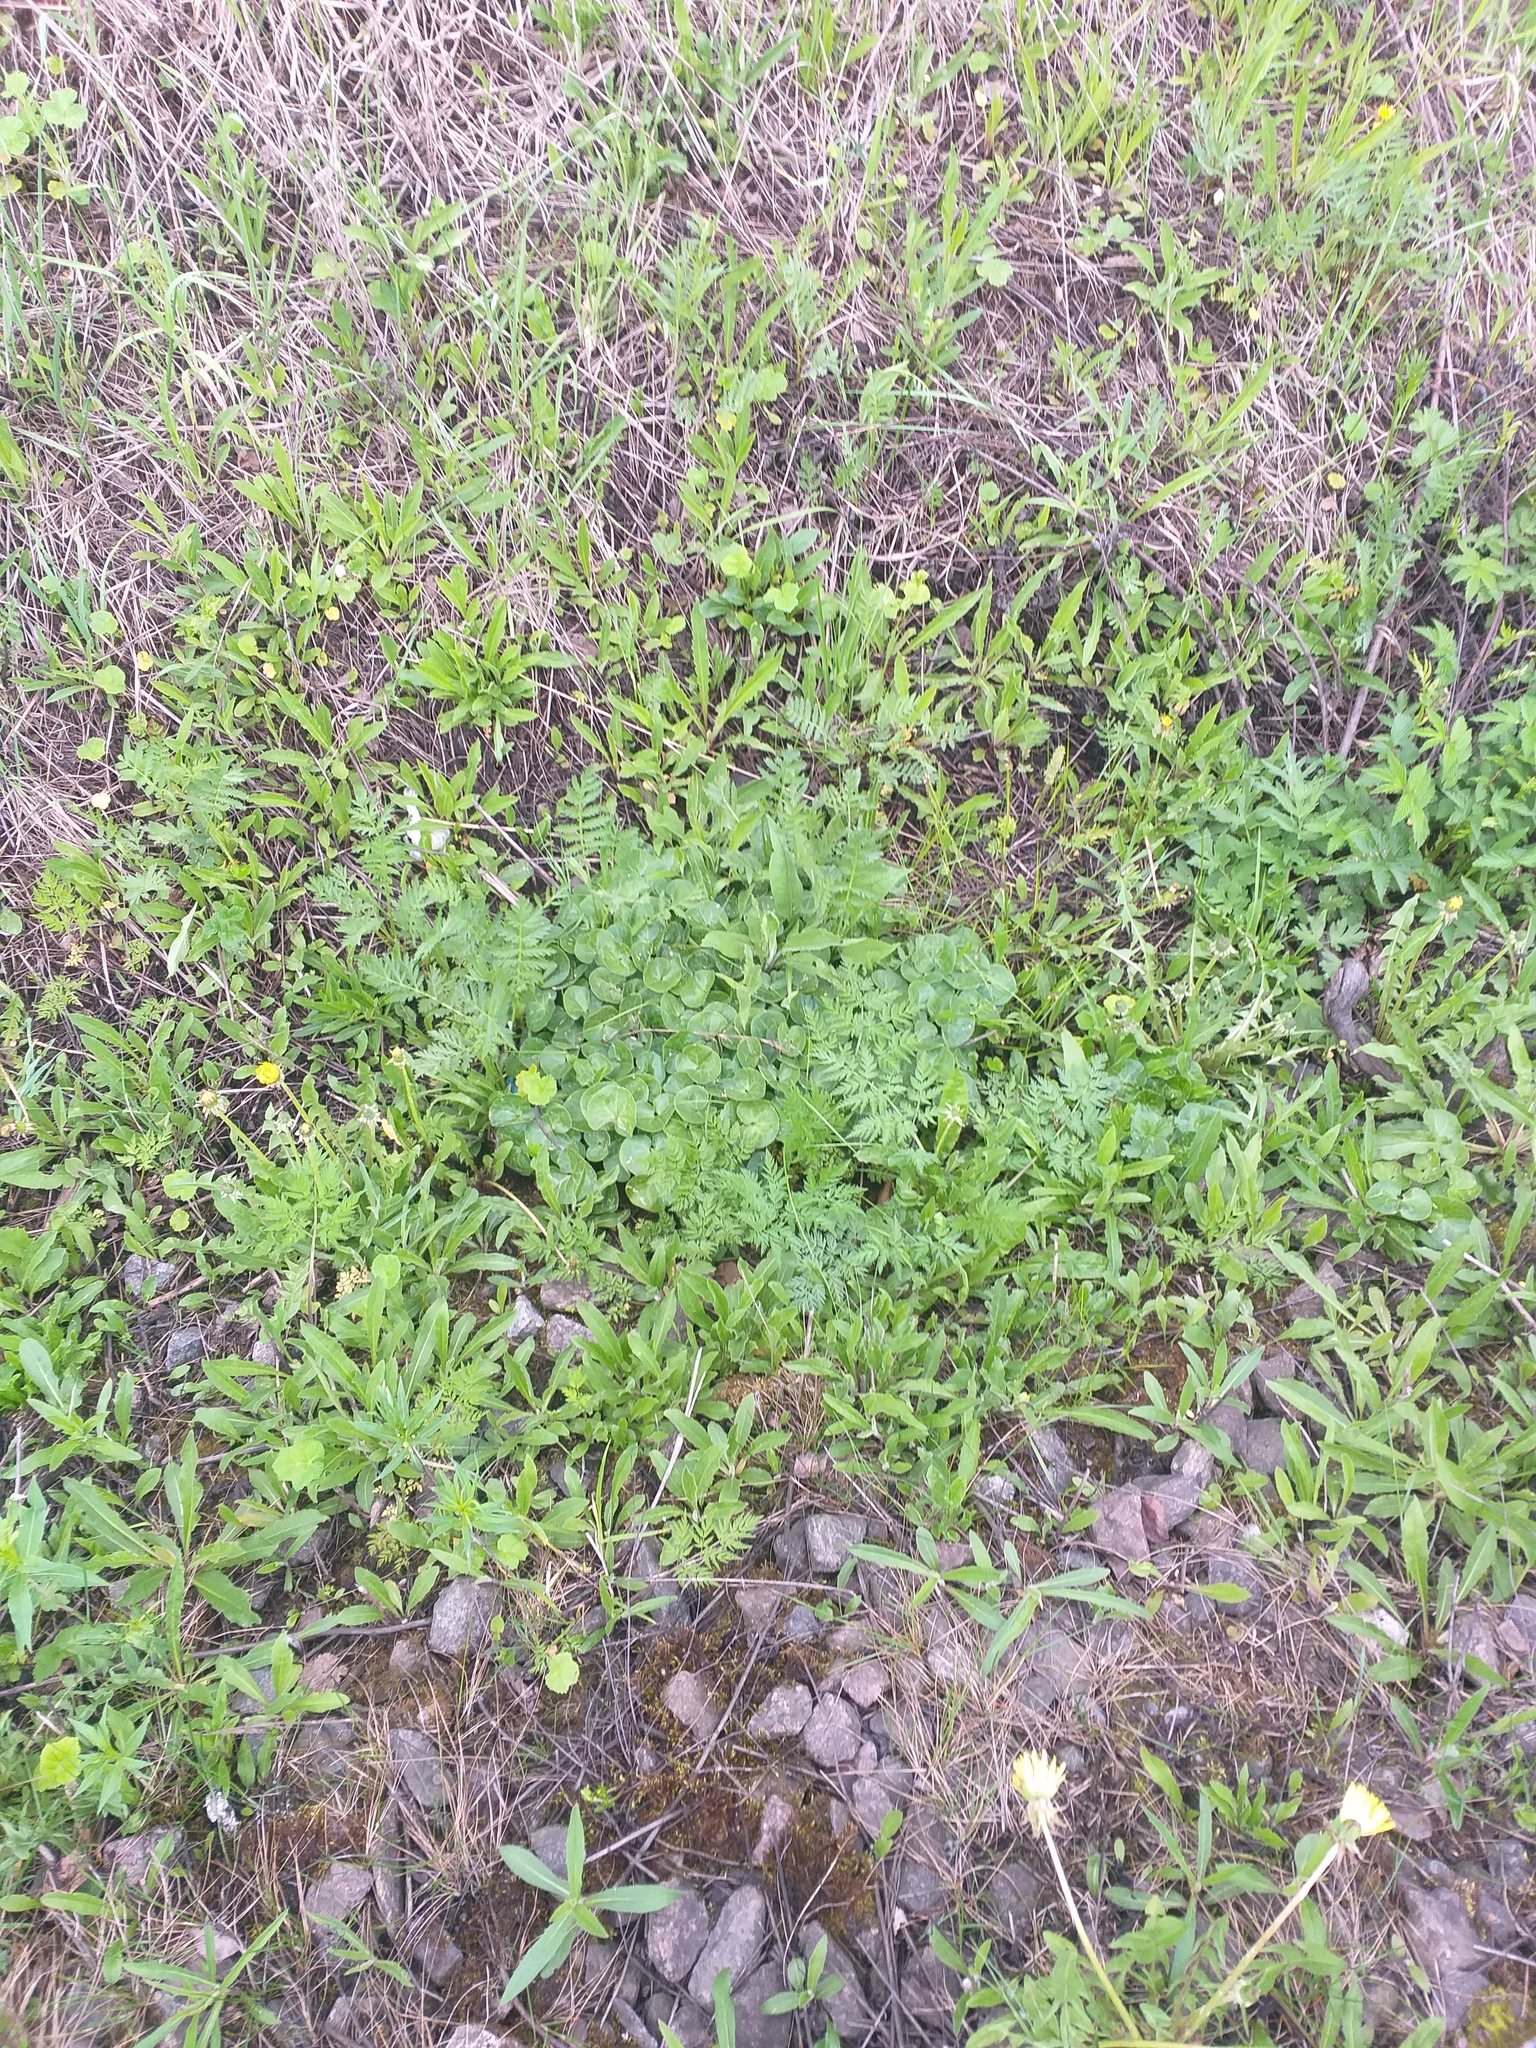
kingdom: Plantae
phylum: Tracheophyta
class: Magnoliopsida
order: Piperales
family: Aristolochiaceae
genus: Asarum
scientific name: Asarum europaeum
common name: Asarabacca
